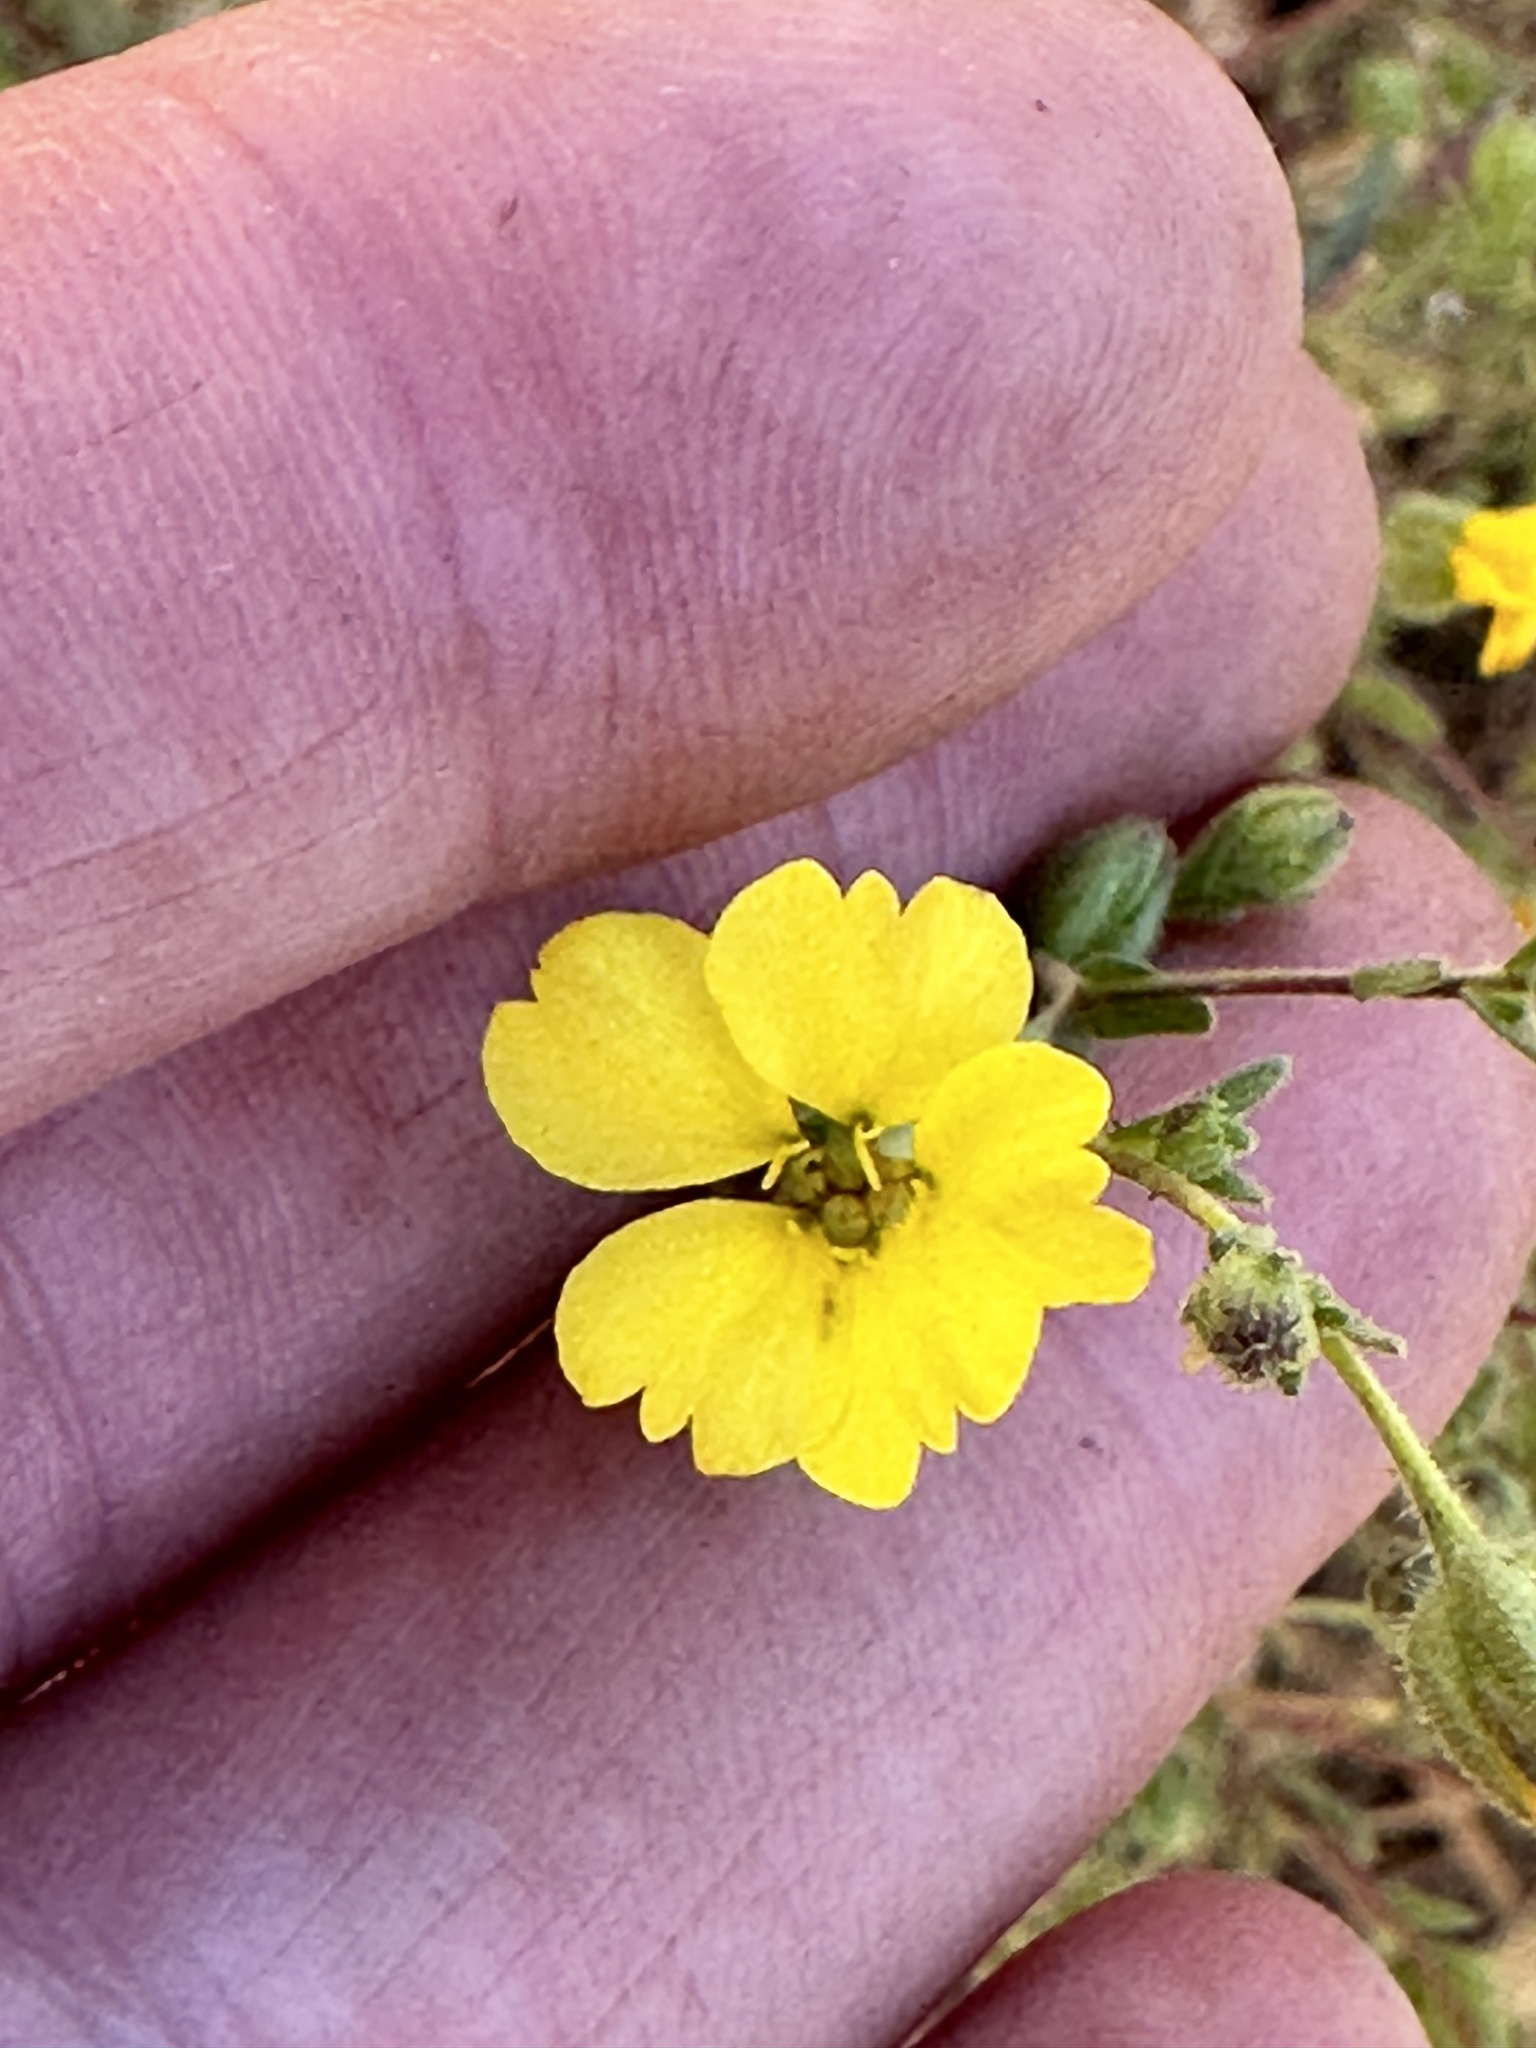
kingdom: Plantae
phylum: Tracheophyta
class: Magnoliopsida
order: Asterales
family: Asteraceae
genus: Deinandra
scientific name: Deinandra kelloggii
